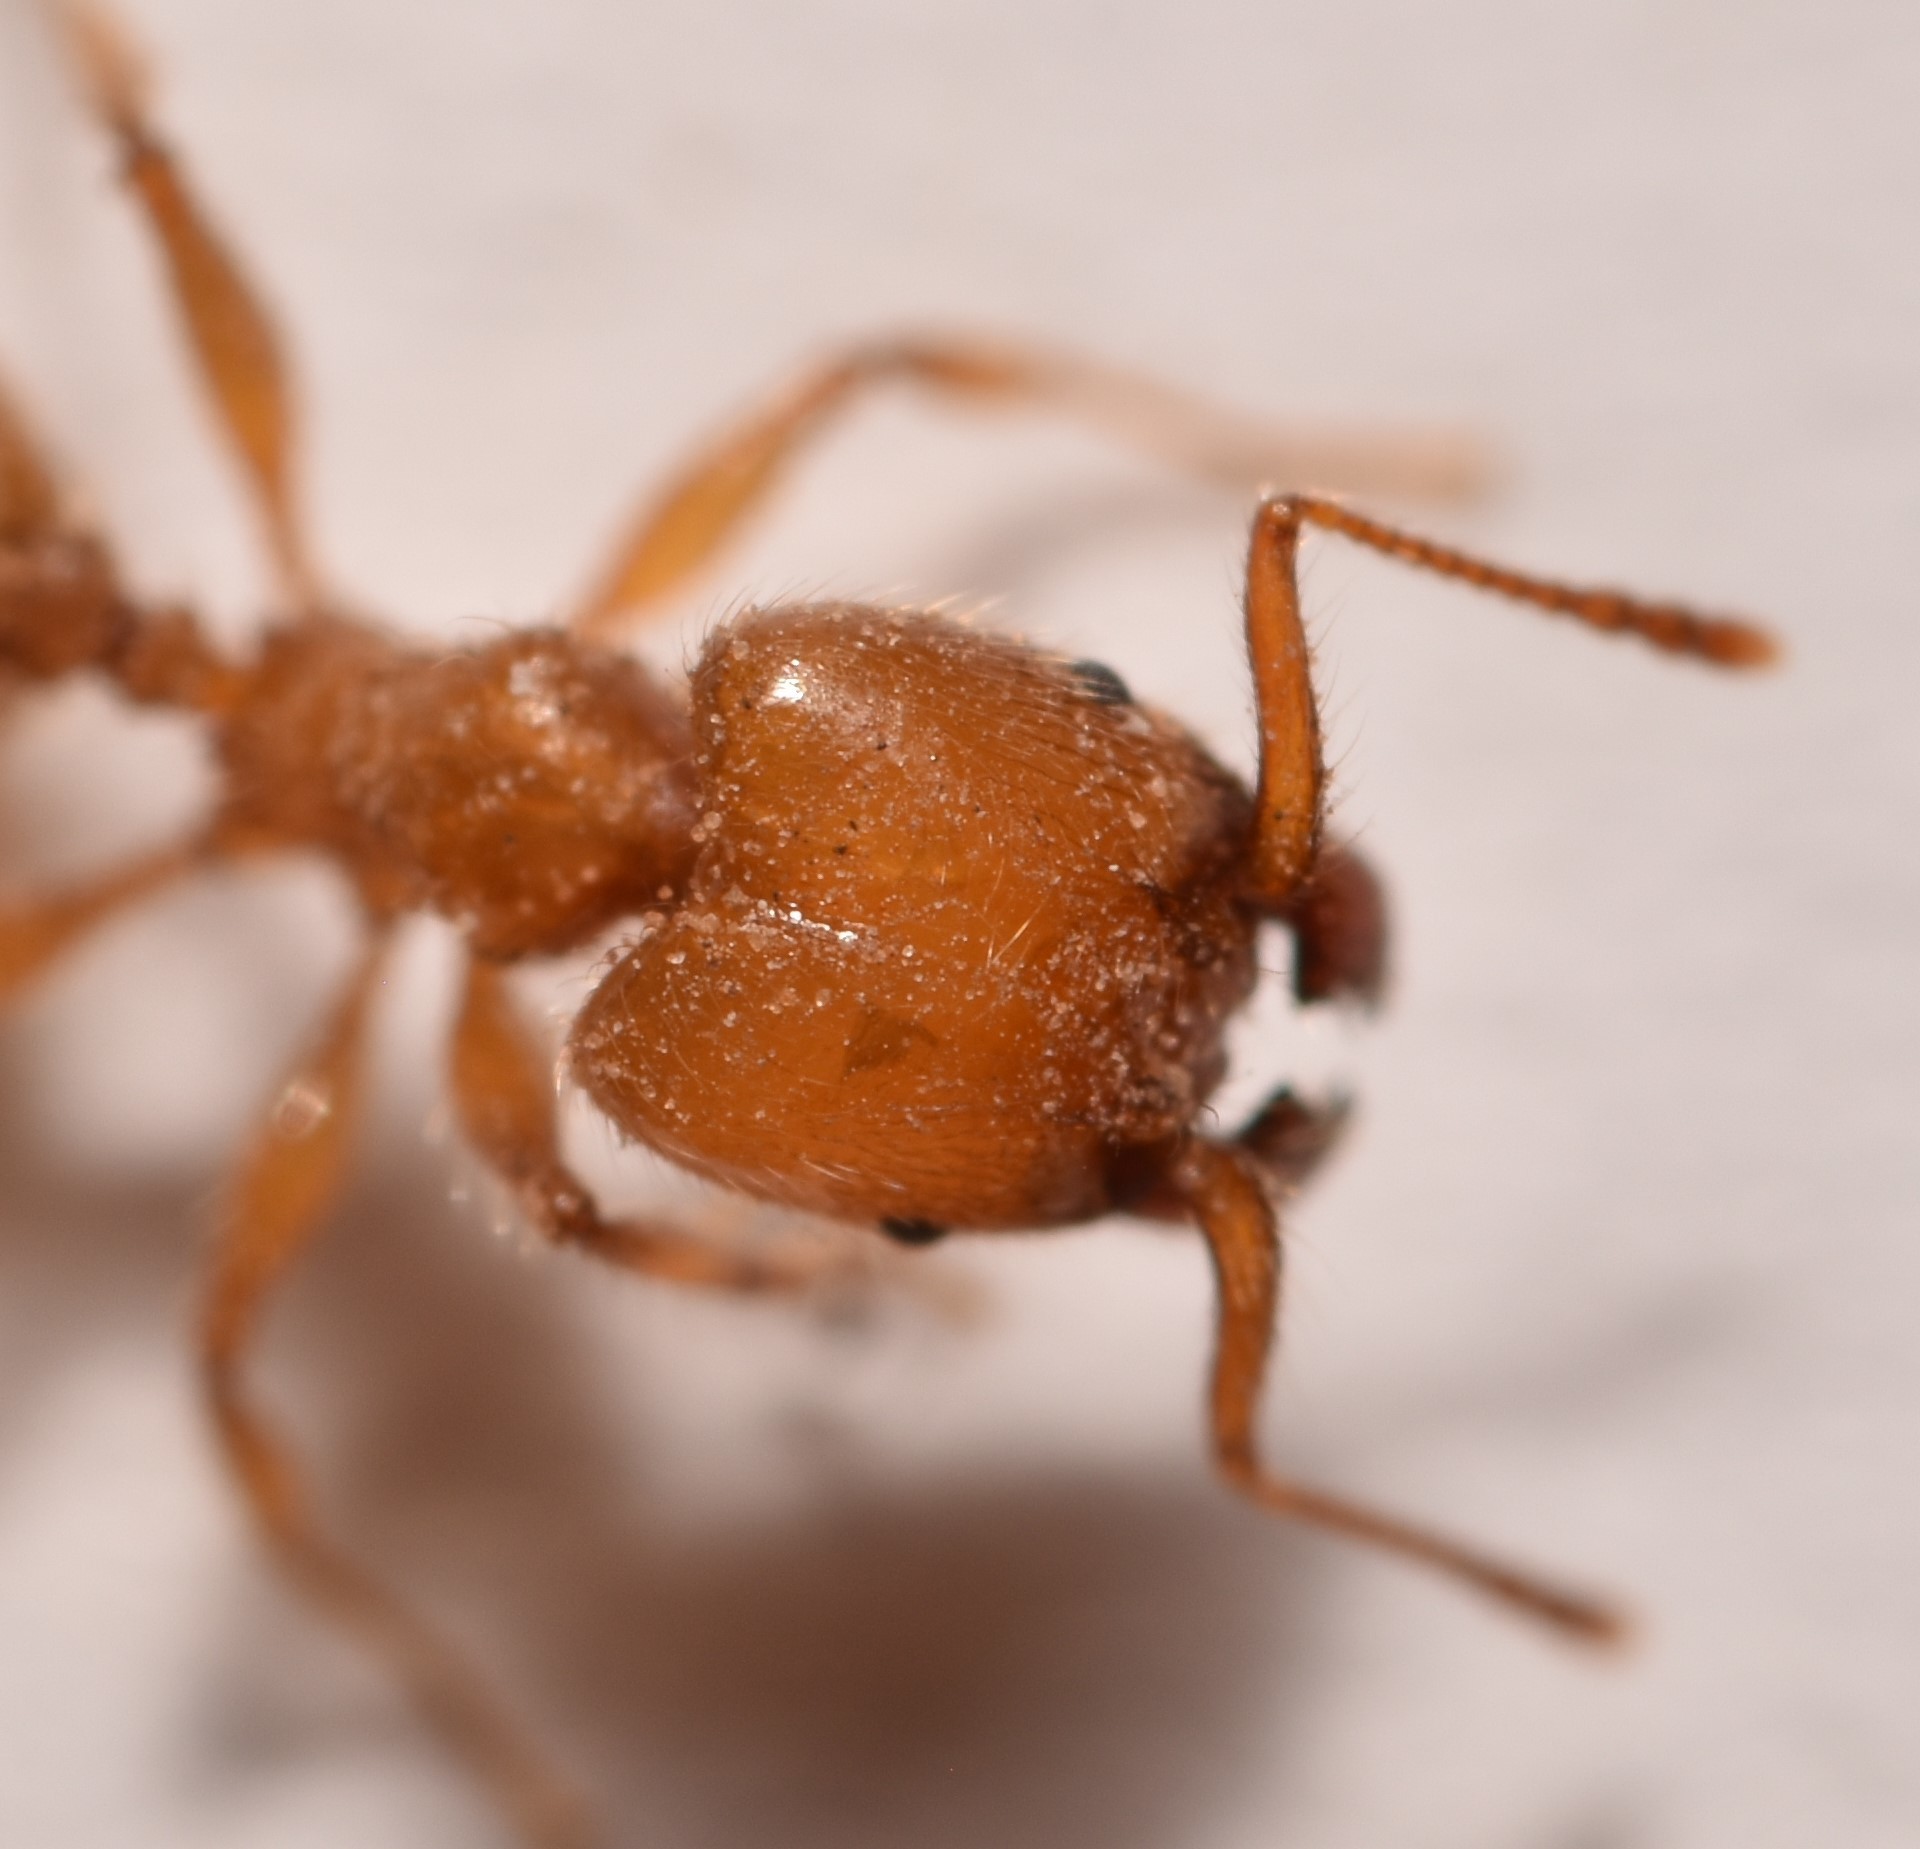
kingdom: Animalia
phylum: Arthropoda
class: Insecta
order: Hymenoptera
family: Formicidae
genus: Pheidole
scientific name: Pheidole porcula
